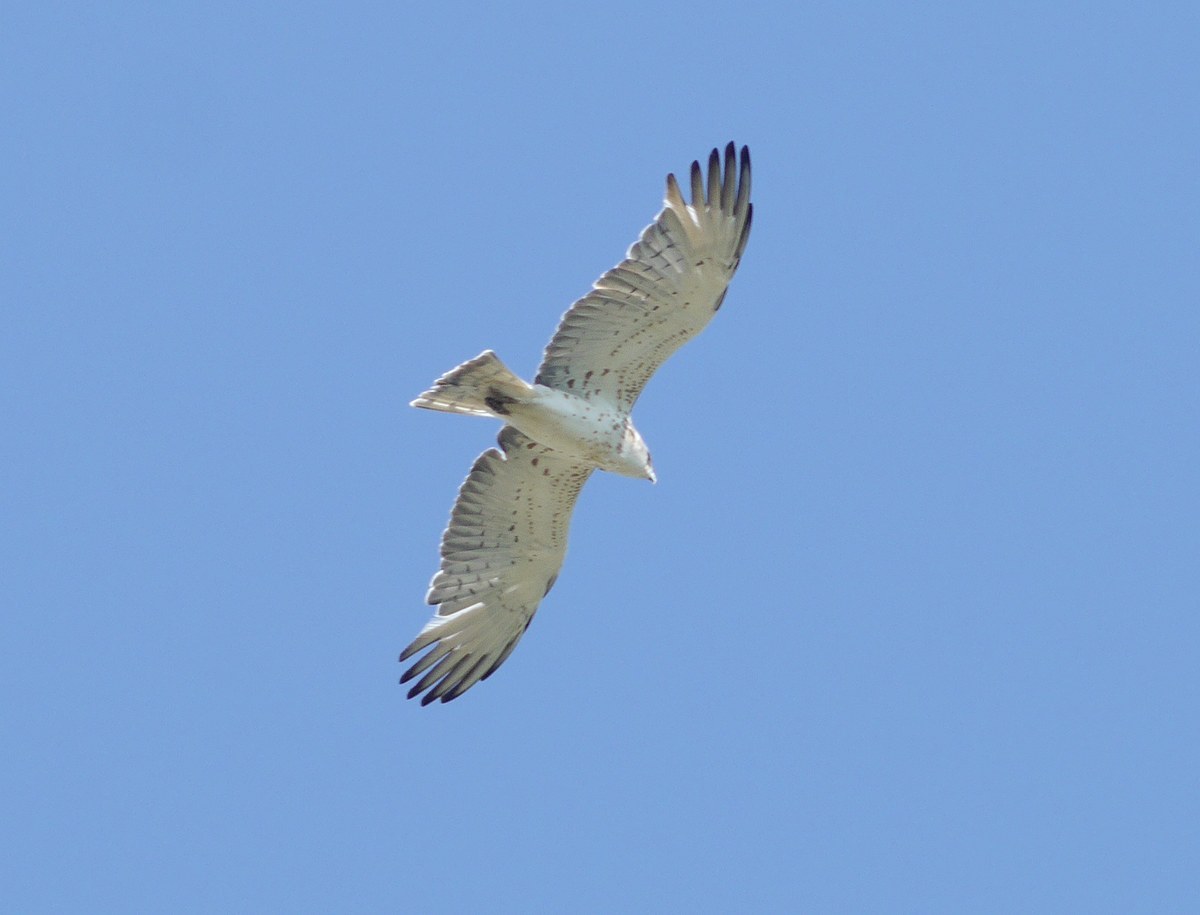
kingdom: Animalia
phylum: Chordata
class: Aves
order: Accipitriformes
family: Accipitridae
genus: Circaetus
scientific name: Circaetus gallicus
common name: Short-toed snake eagle
